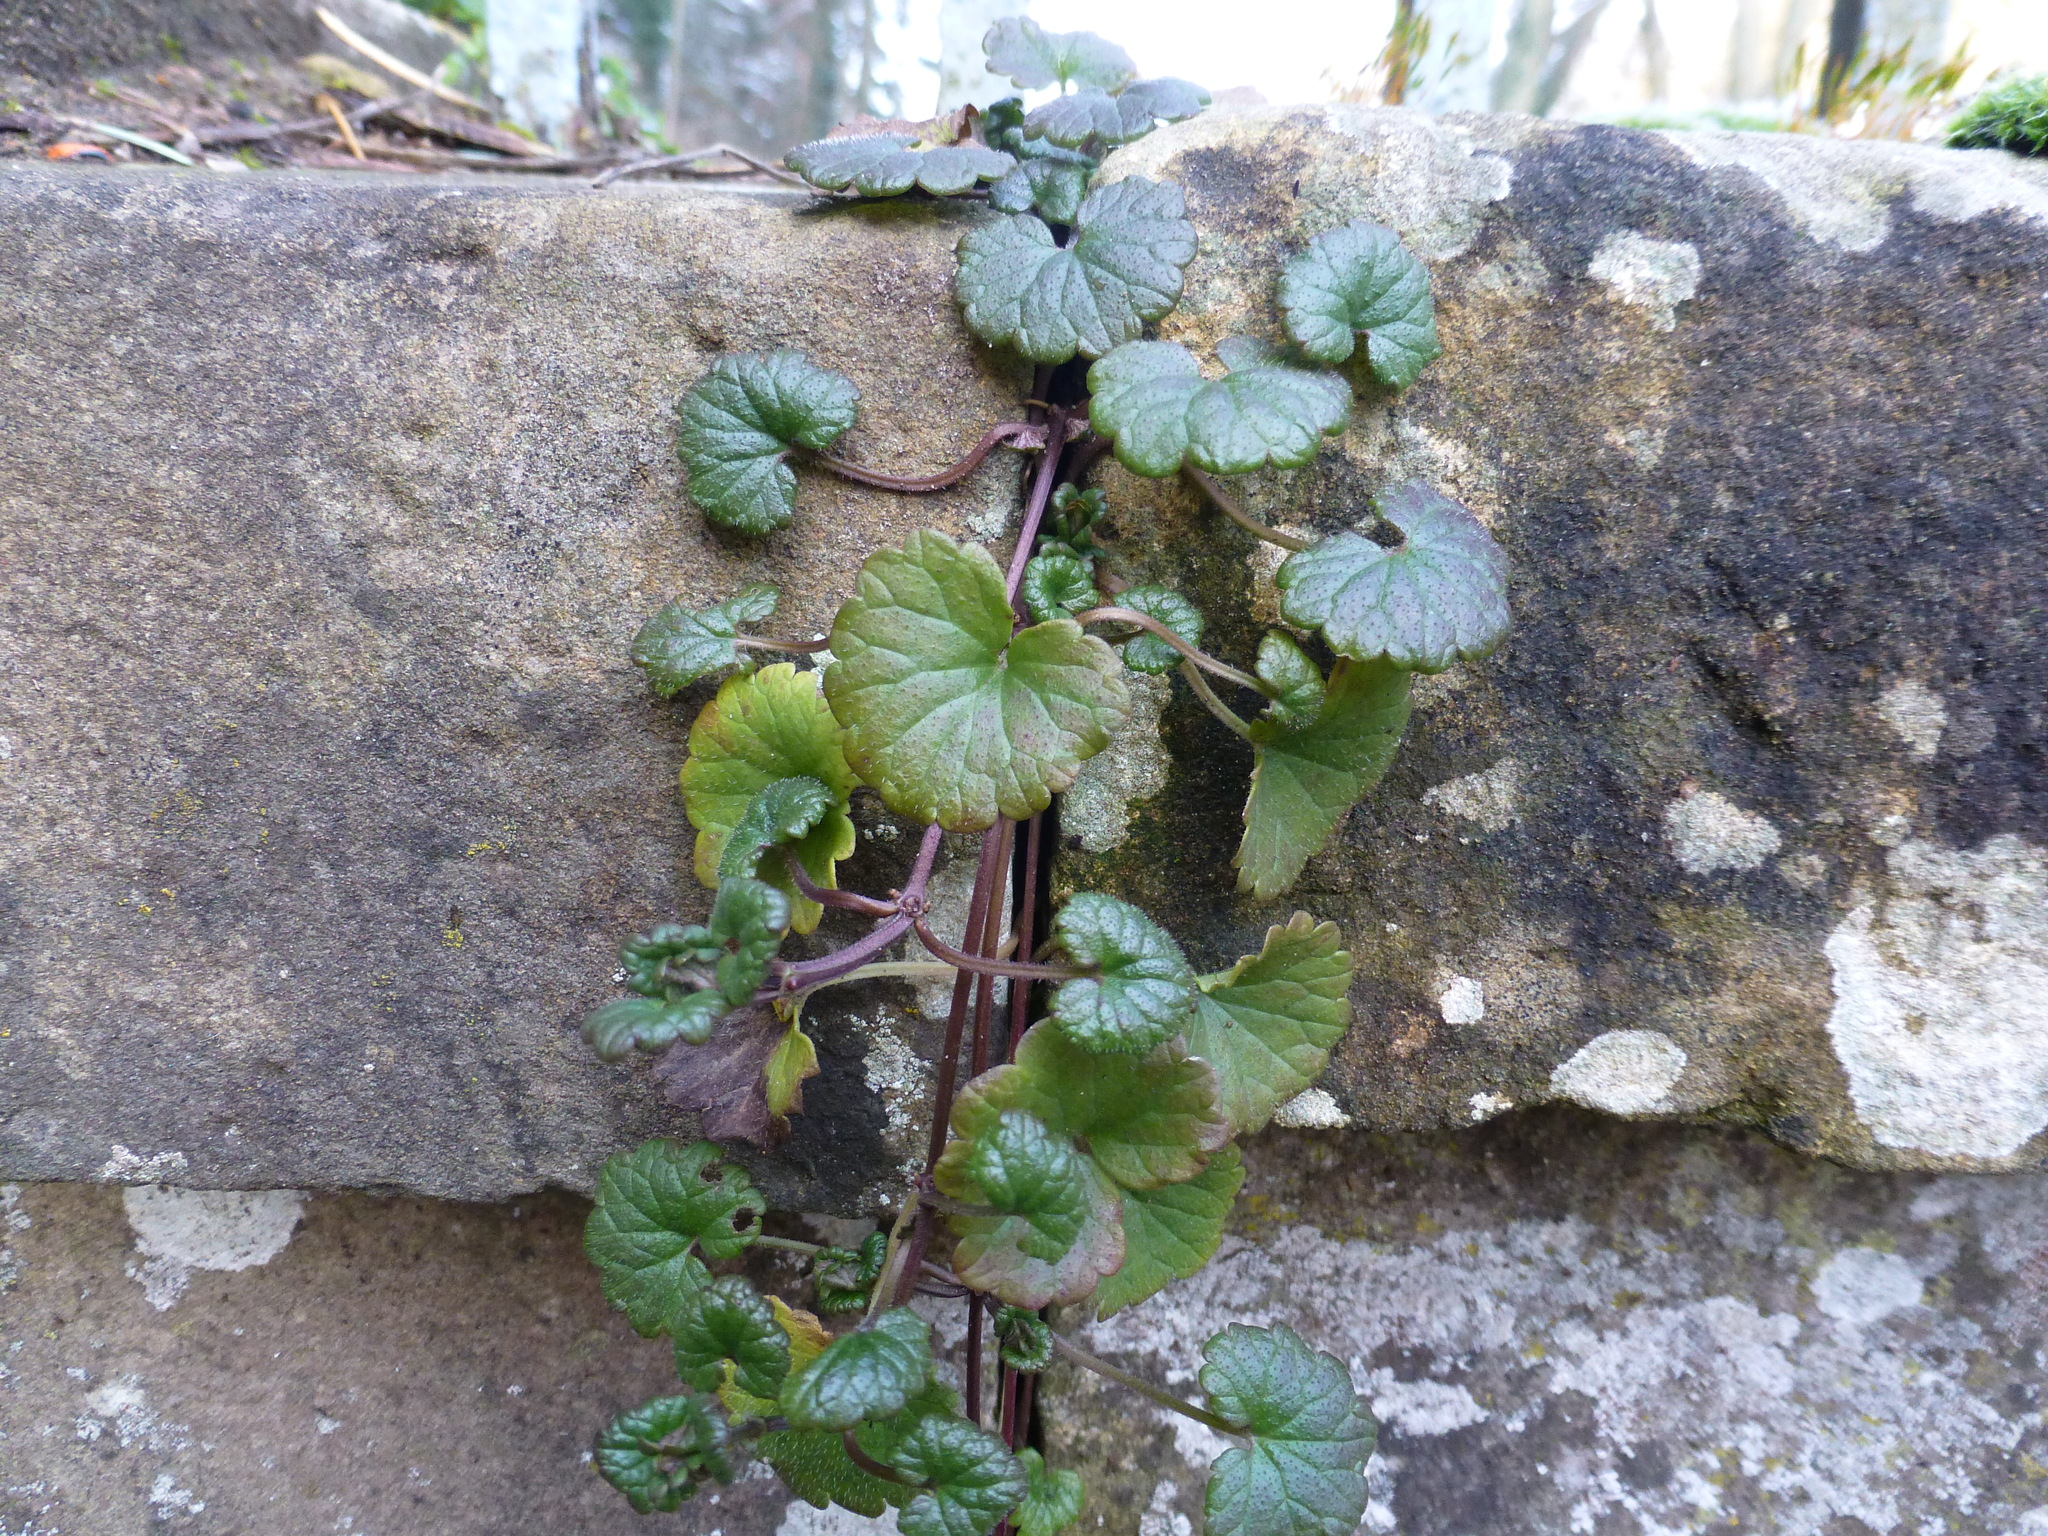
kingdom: Plantae
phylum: Tracheophyta
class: Magnoliopsida
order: Lamiales
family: Lamiaceae
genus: Glechoma
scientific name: Glechoma hederacea
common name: Ground ivy
